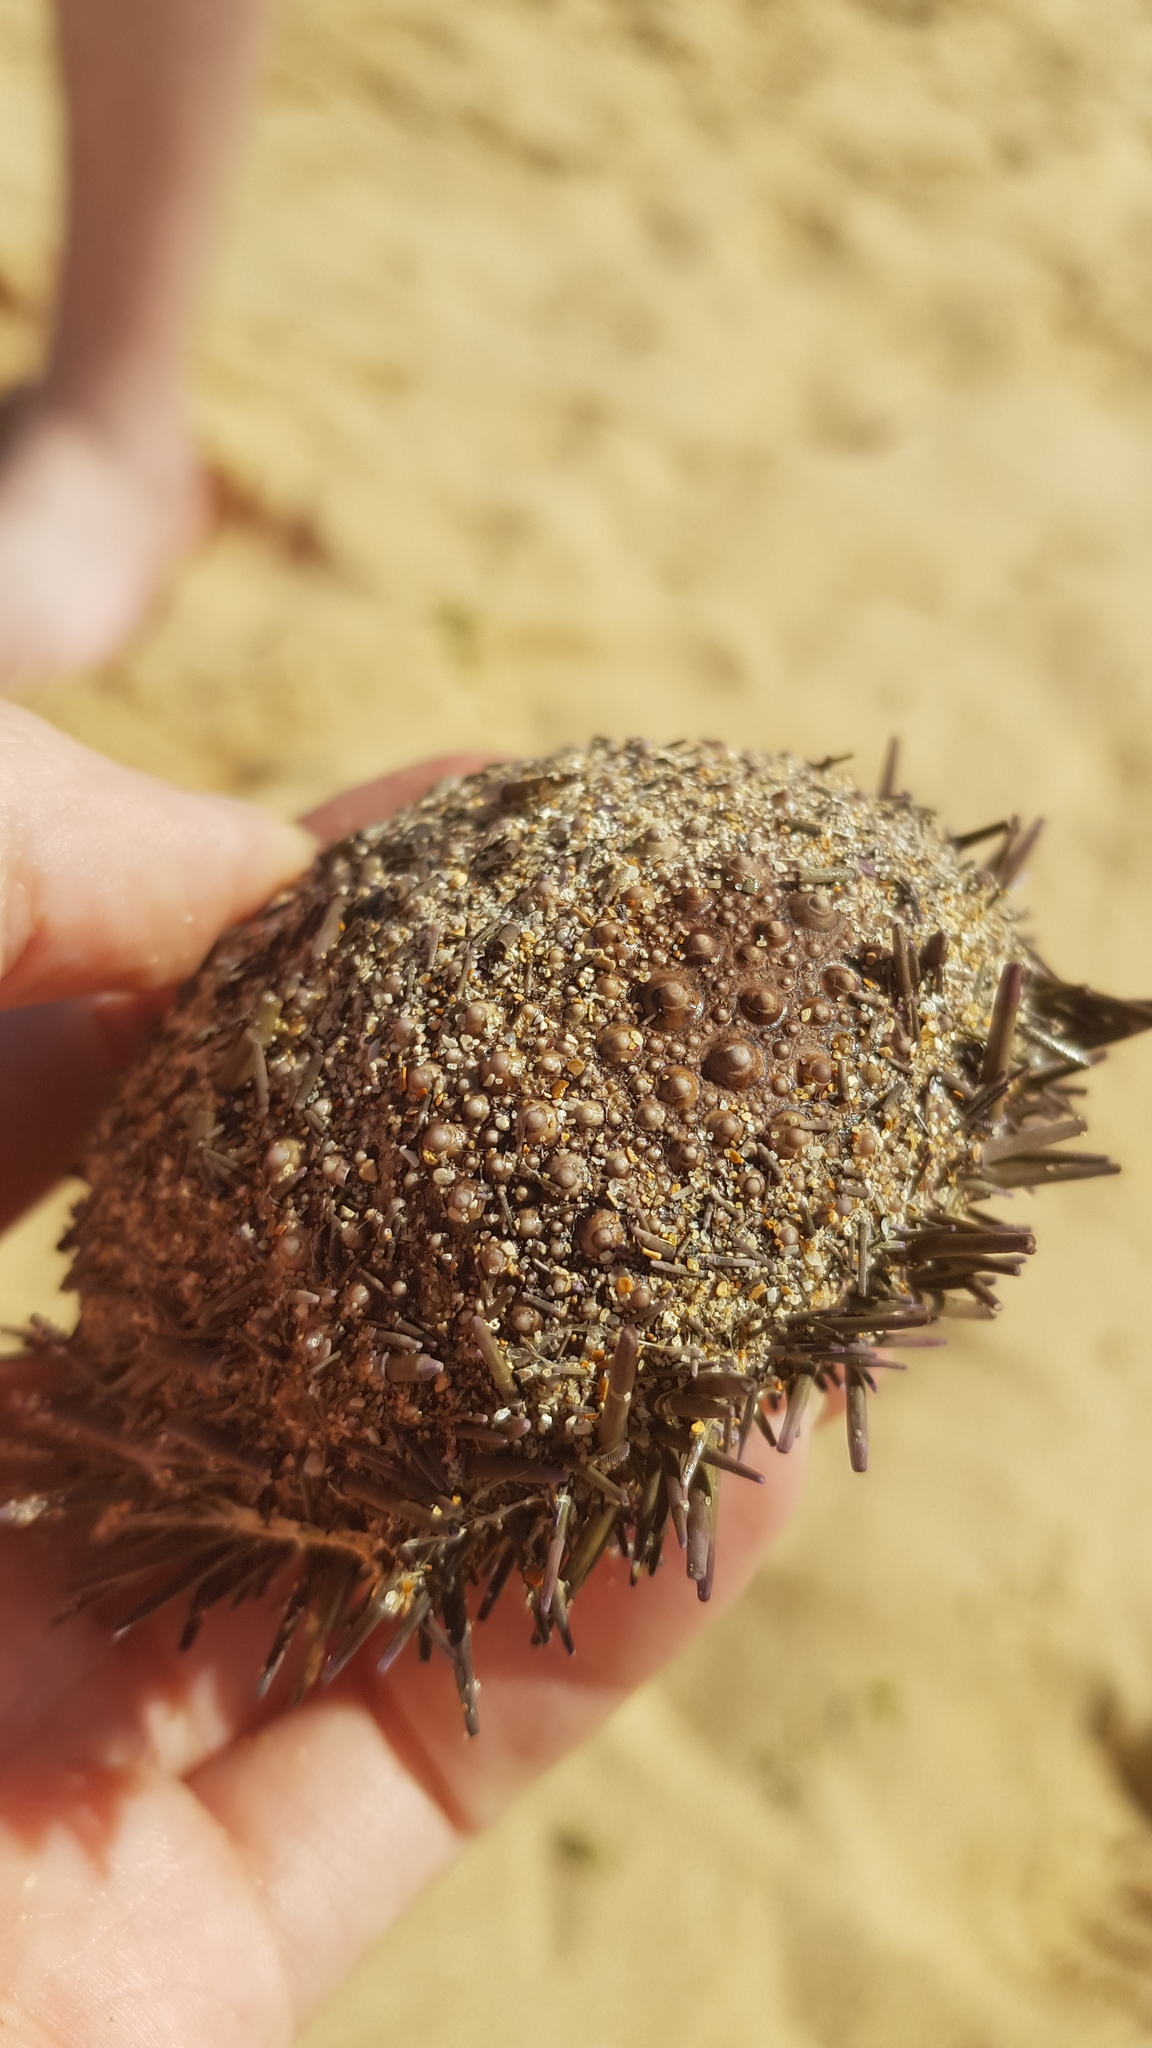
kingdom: Animalia
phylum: Echinodermata
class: Echinoidea
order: Camarodonta
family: Echinometridae
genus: Heliocidaris
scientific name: Heliocidaris erythrogramma
